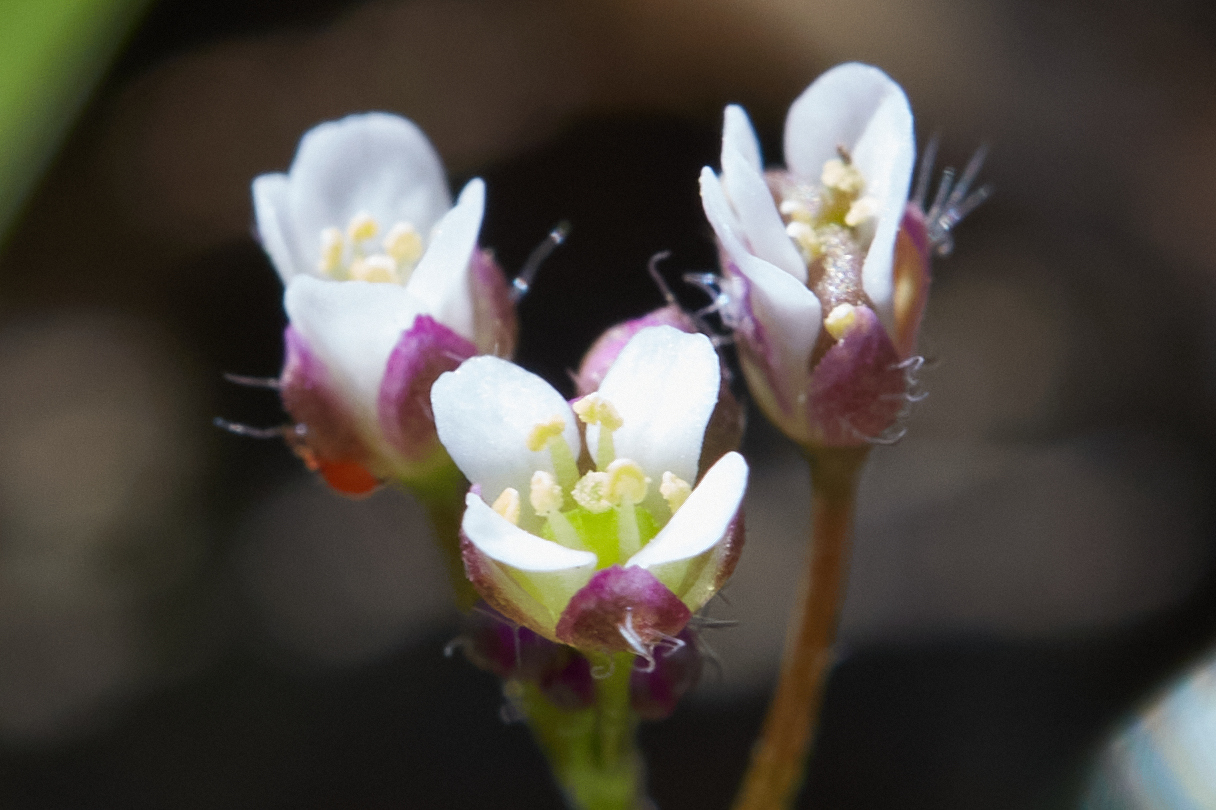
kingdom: Plantae
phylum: Tracheophyta
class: Magnoliopsida
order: Brassicales
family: Brassicaceae
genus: Capsella
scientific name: Capsella bursa-pastoris
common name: Shepherd's purse
